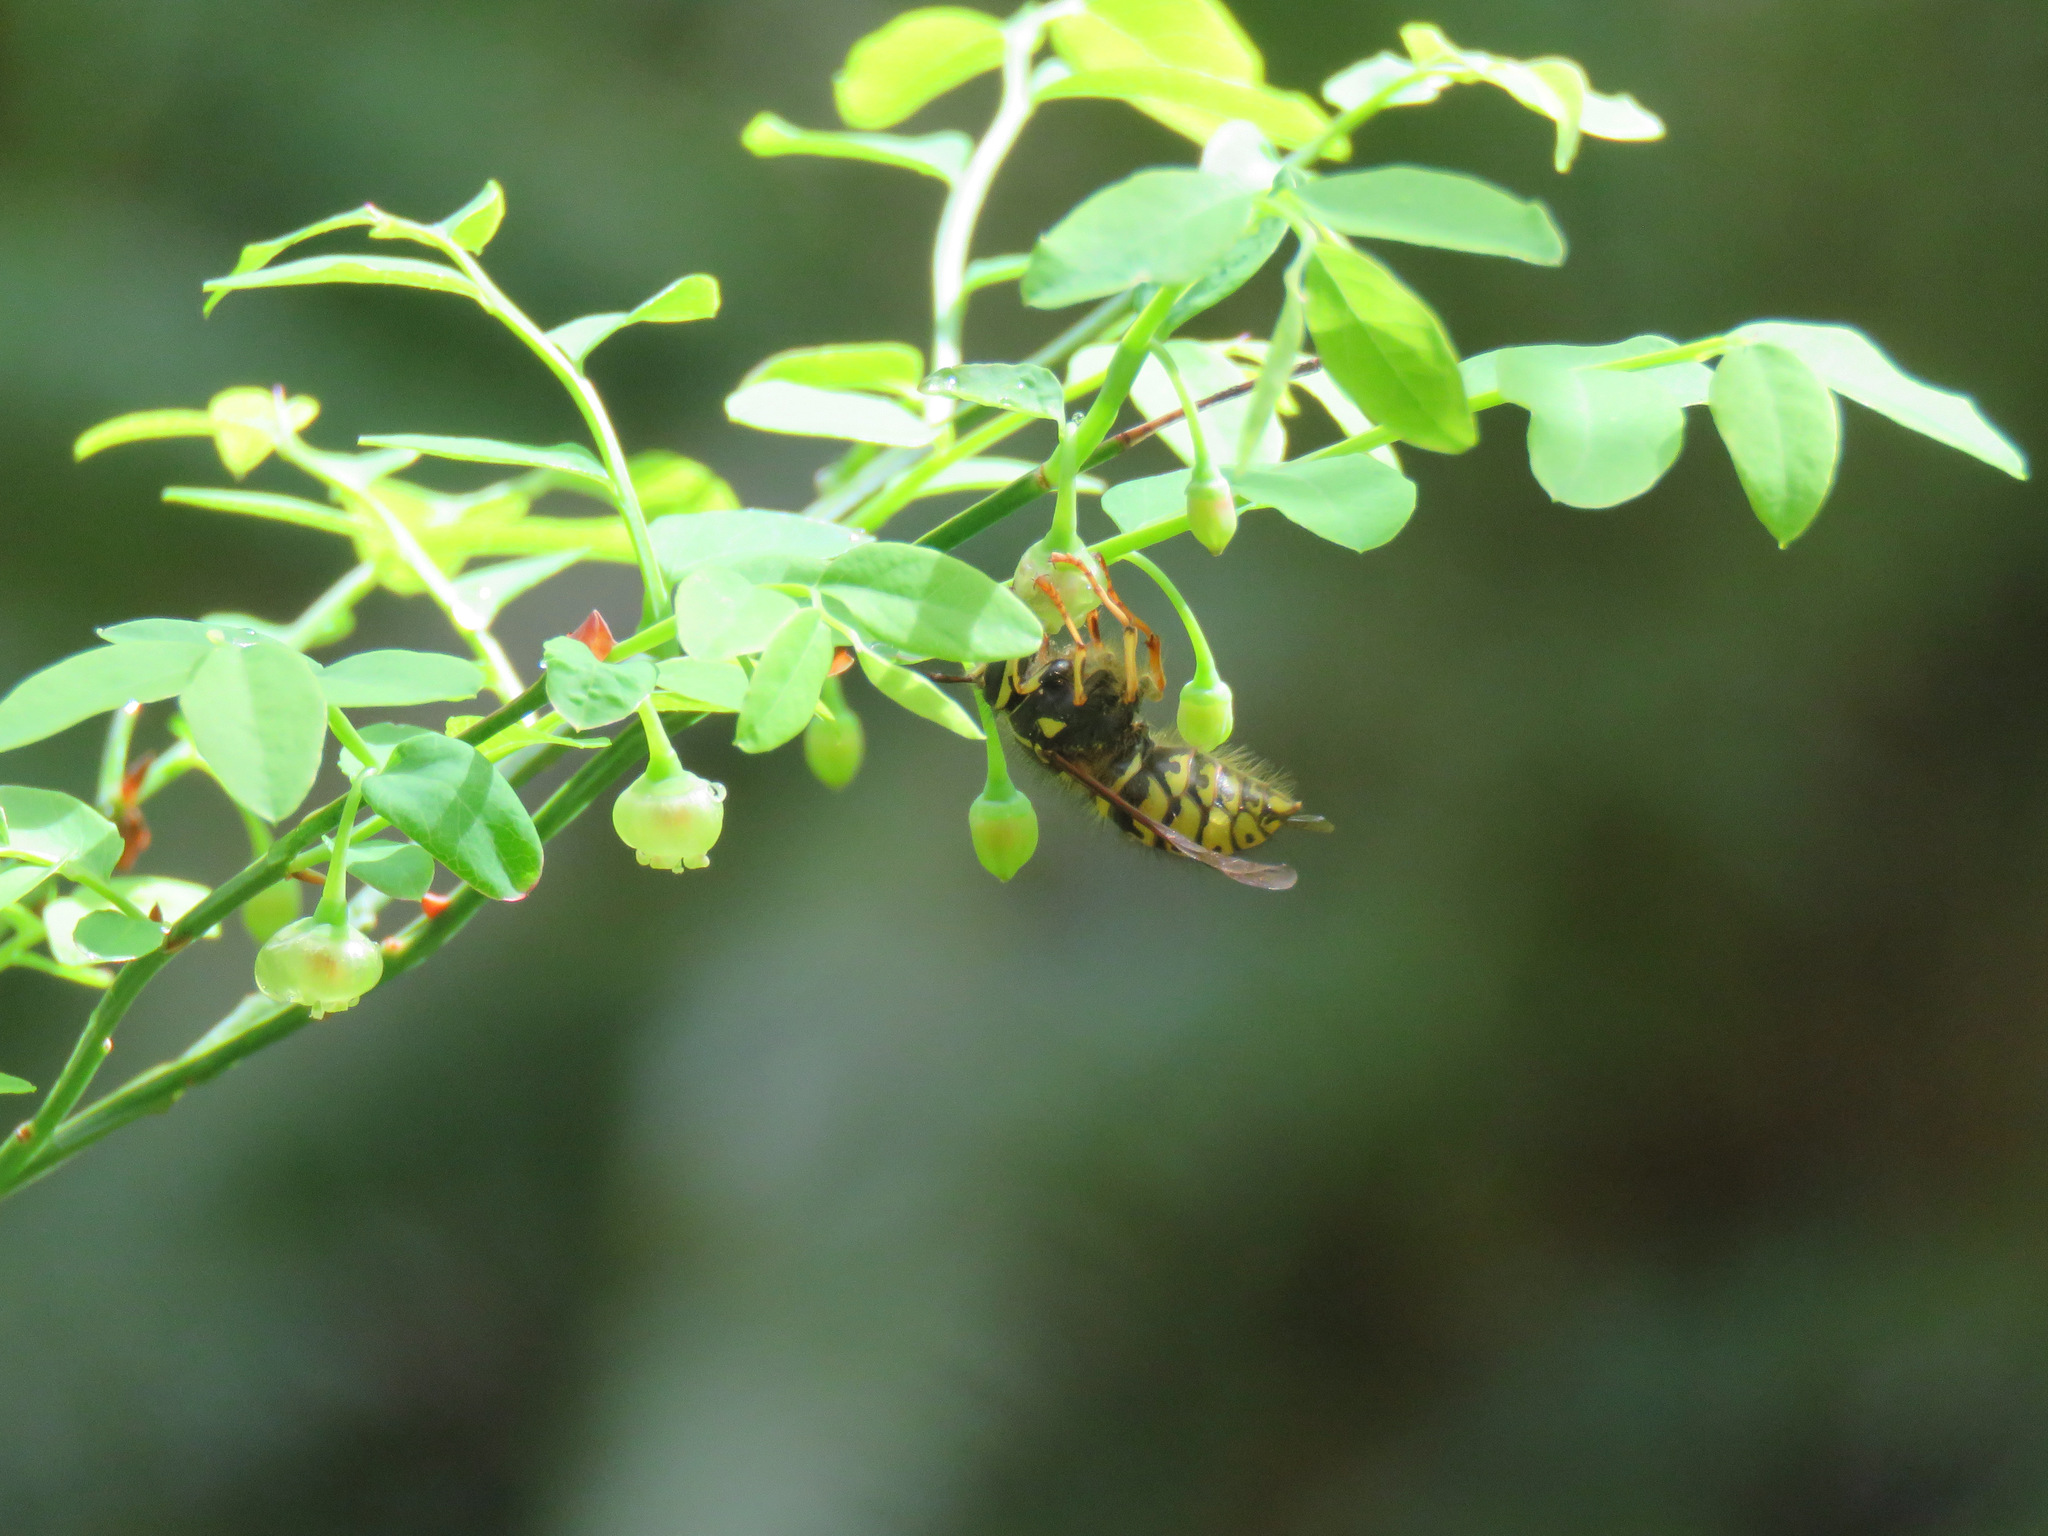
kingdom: Animalia
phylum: Arthropoda
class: Insecta
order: Hymenoptera
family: Vespidae
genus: Dolichovespula
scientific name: Dolichovespula arenaria
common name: Aerial yellowjacket
